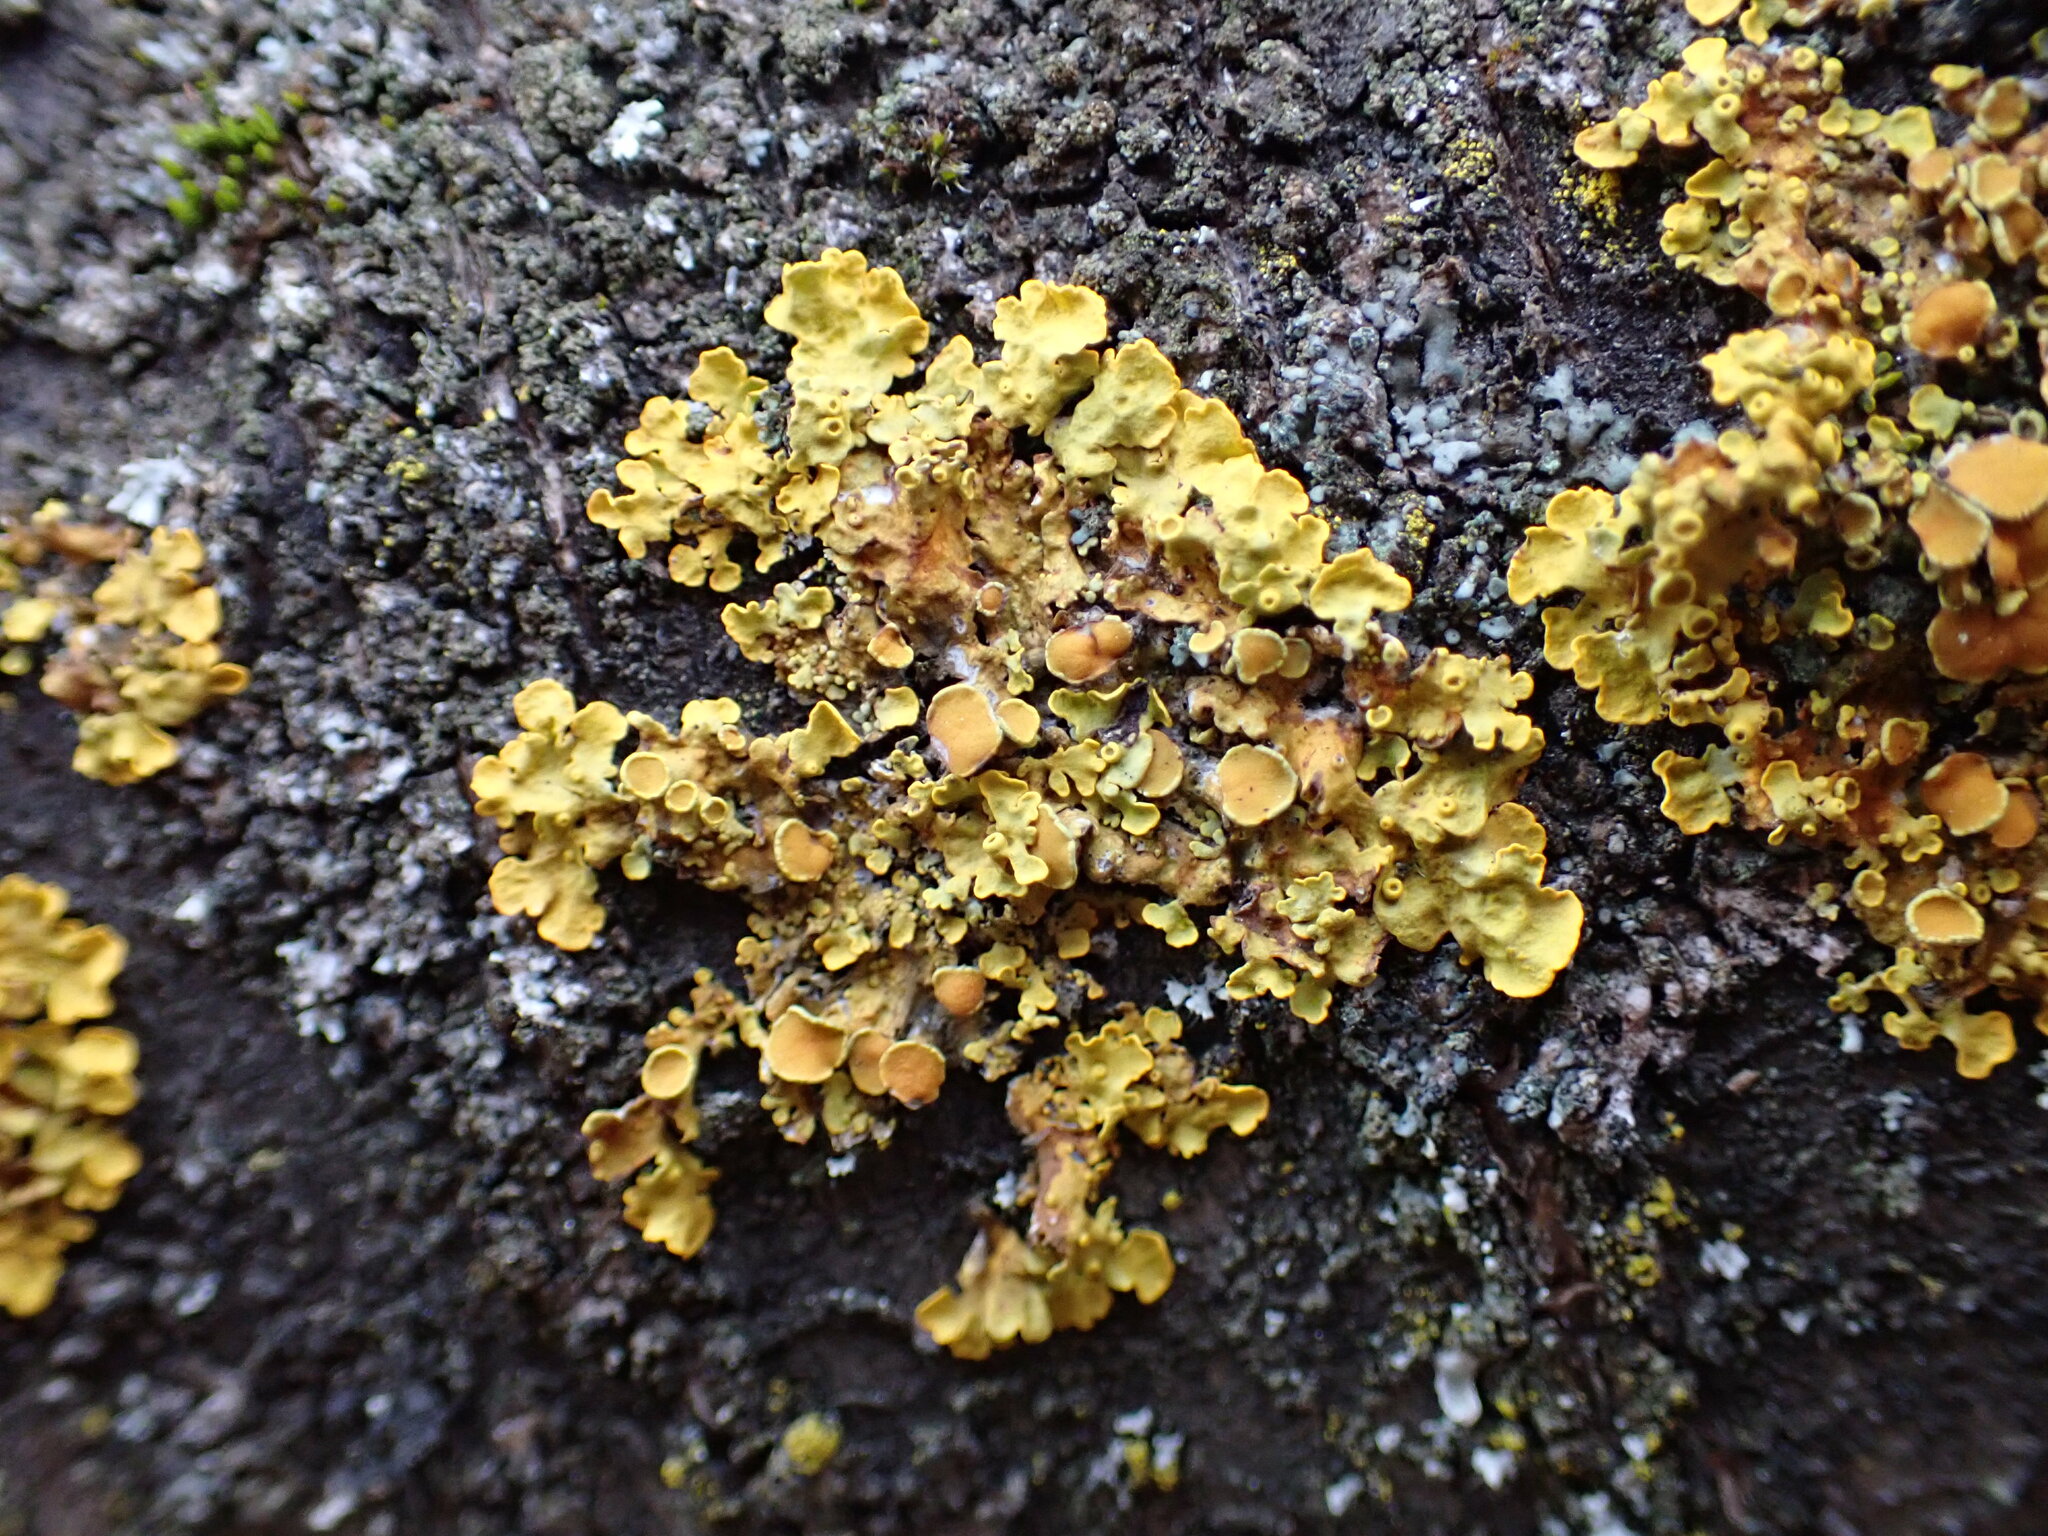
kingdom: Fungi
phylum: Ascomycota
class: Lecanoromycetes
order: Teloschistales
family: Teloschistaceae
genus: Xanthoria
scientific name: Xanthoria parietina
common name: Common orange lichen
